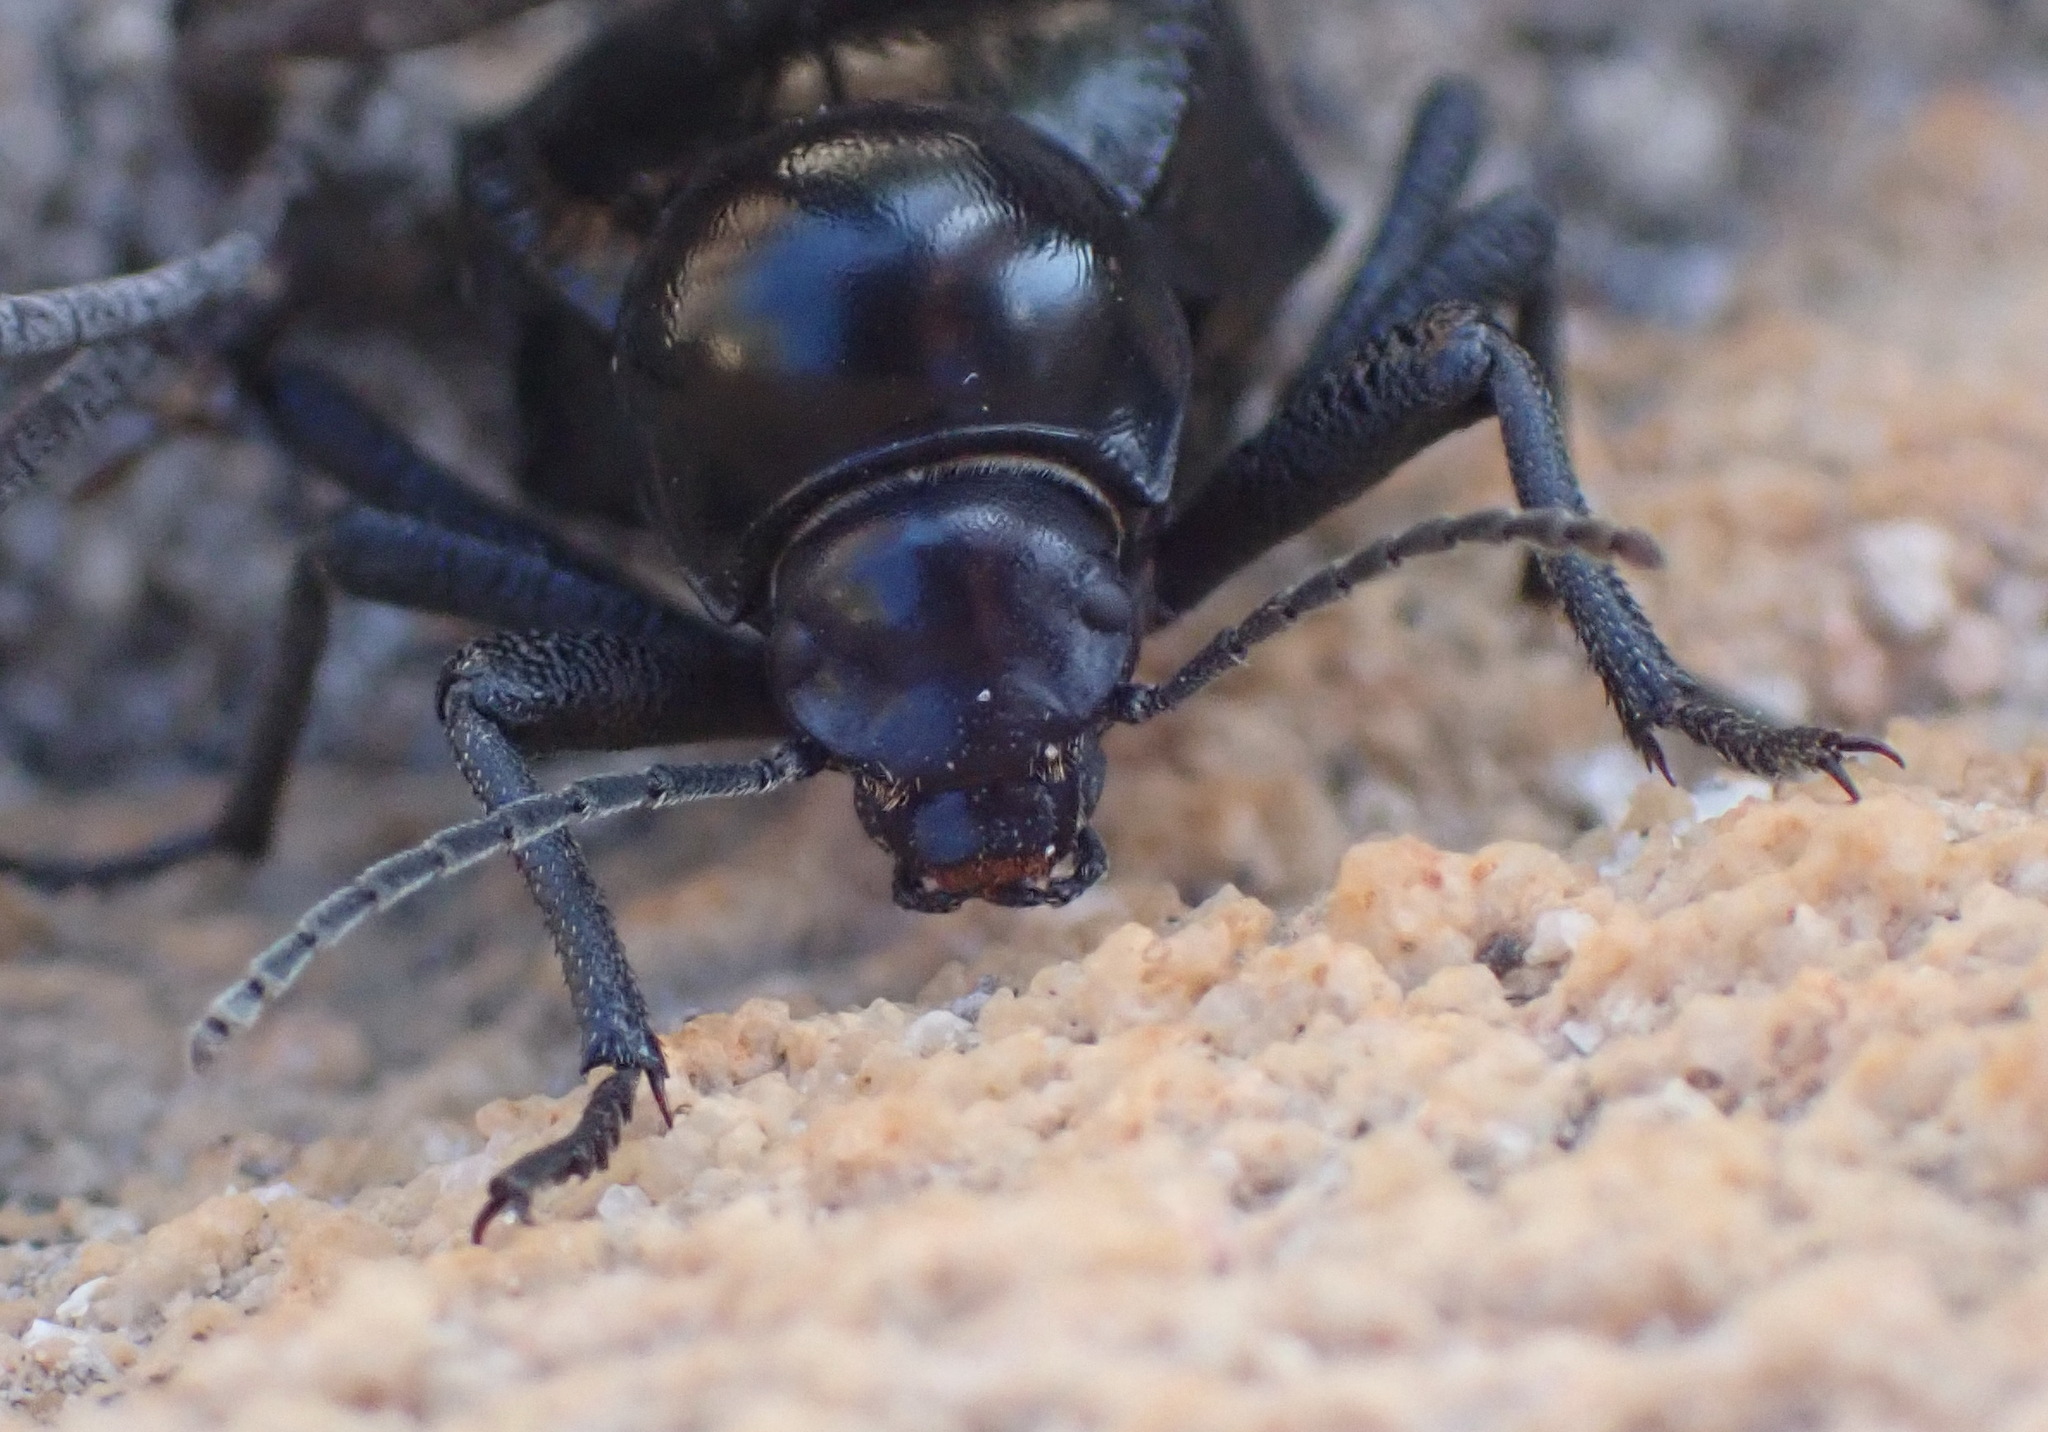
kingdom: Animalia
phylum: Arthropoda
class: Insecta
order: Coleoptera
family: Tenebrionidae
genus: Moluris
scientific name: Moluris gibba
